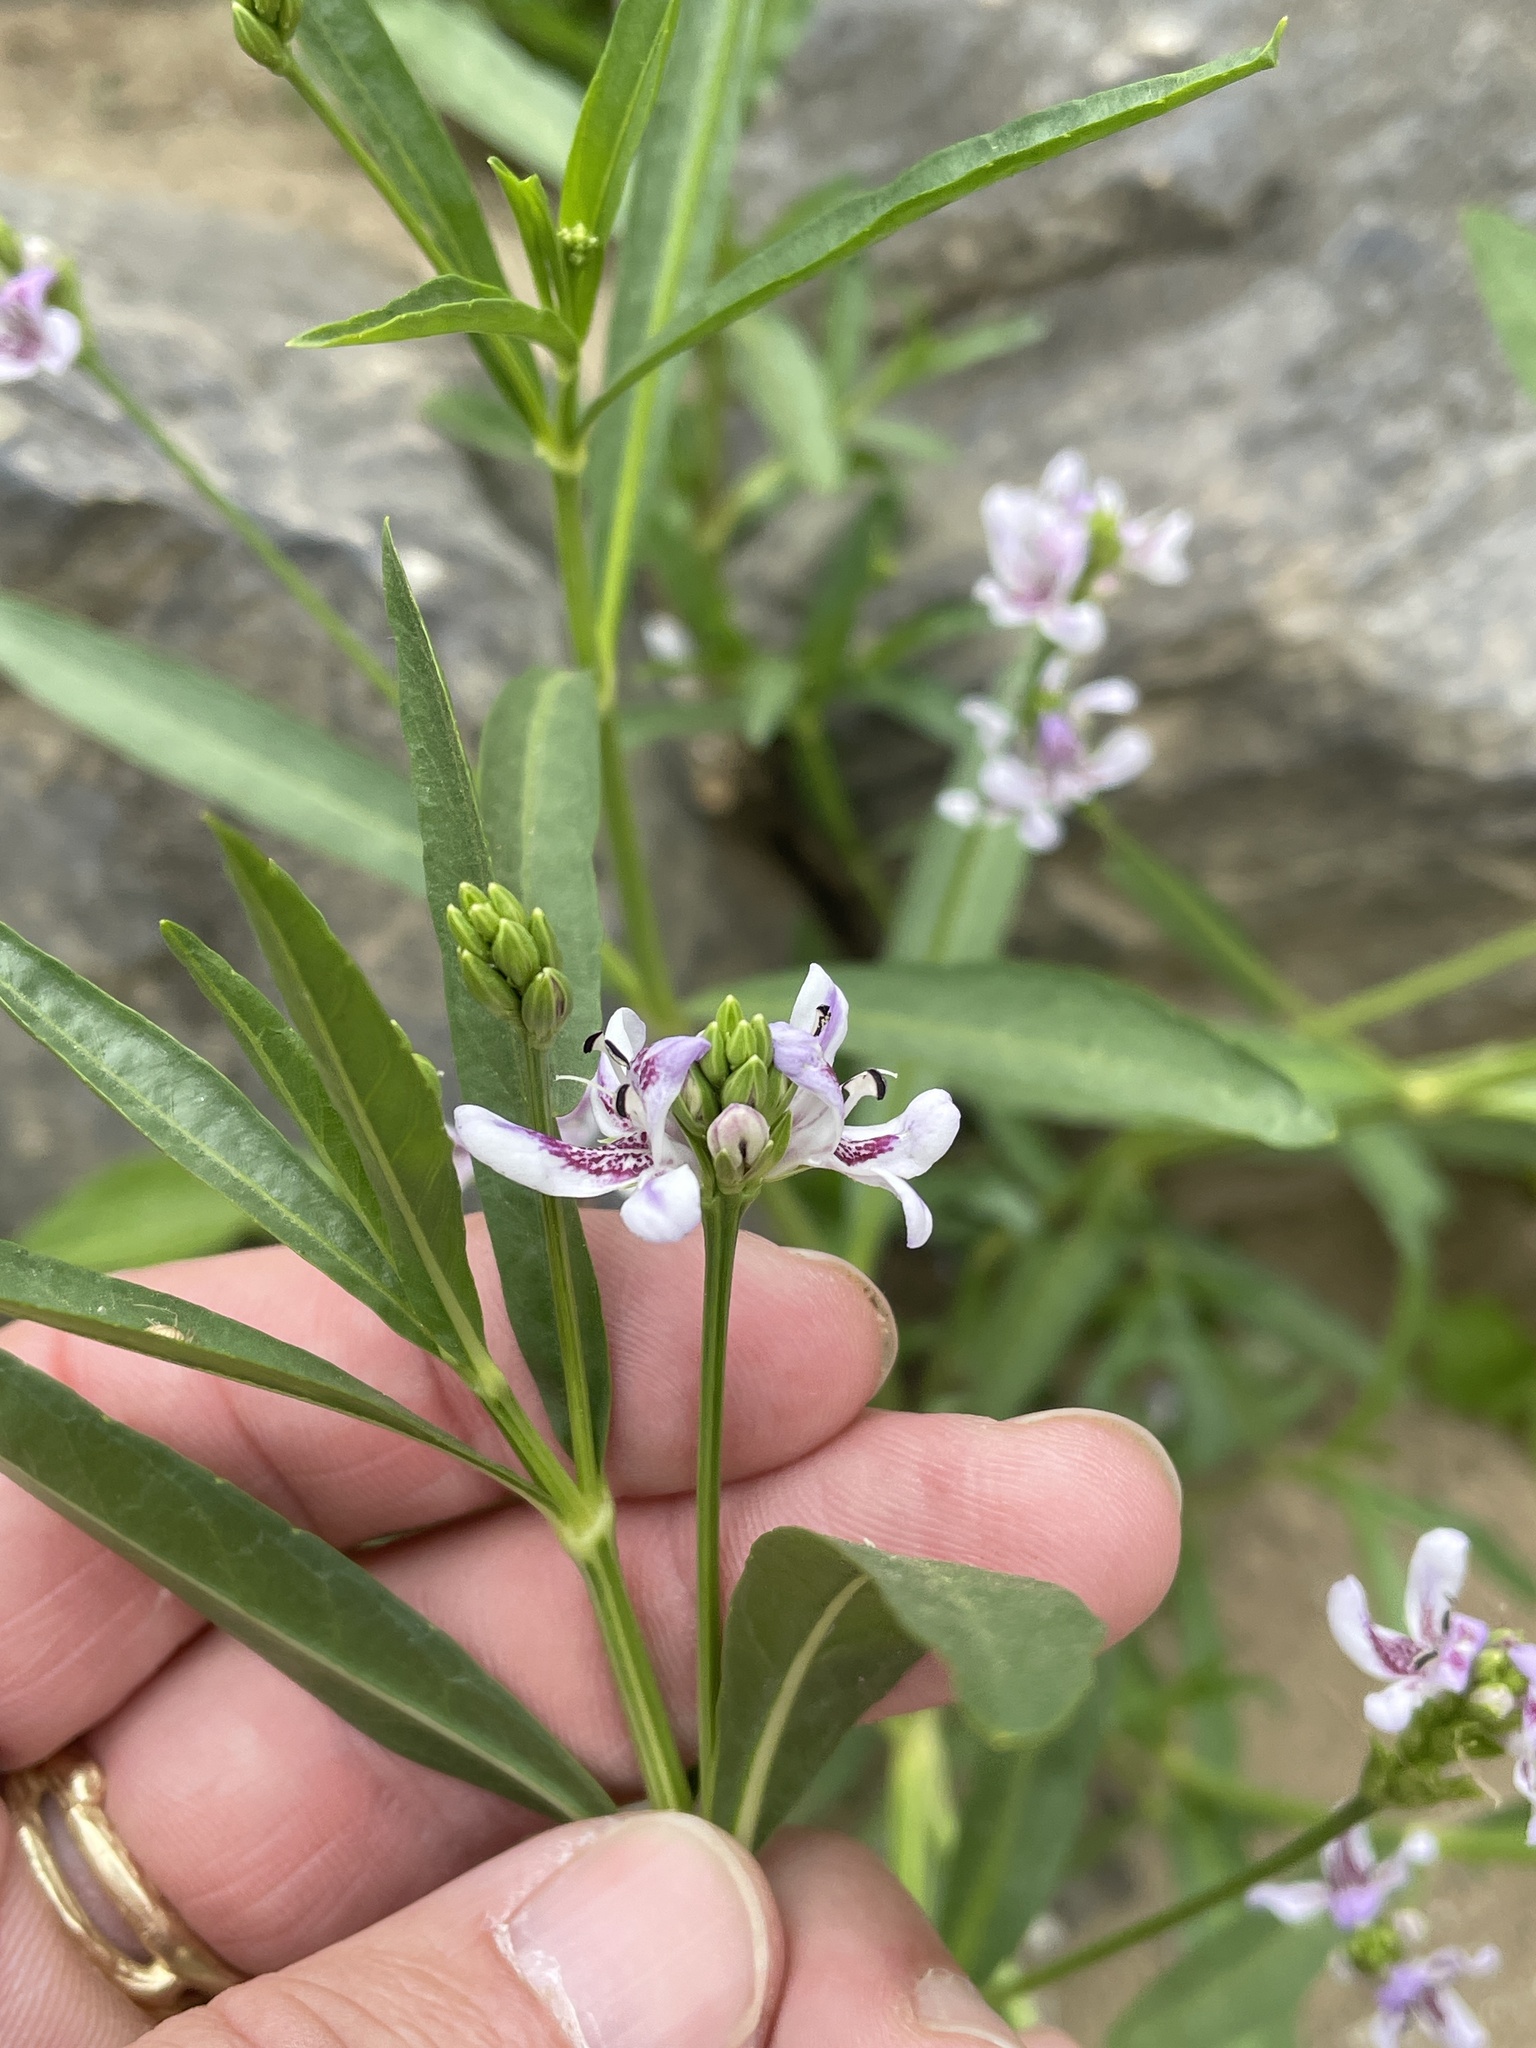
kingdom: Plantae
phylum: Tracheophyta
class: Magnoliopsida
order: Lamiales
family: Acanthaceae
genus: Dianthera
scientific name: Dianthera americana
